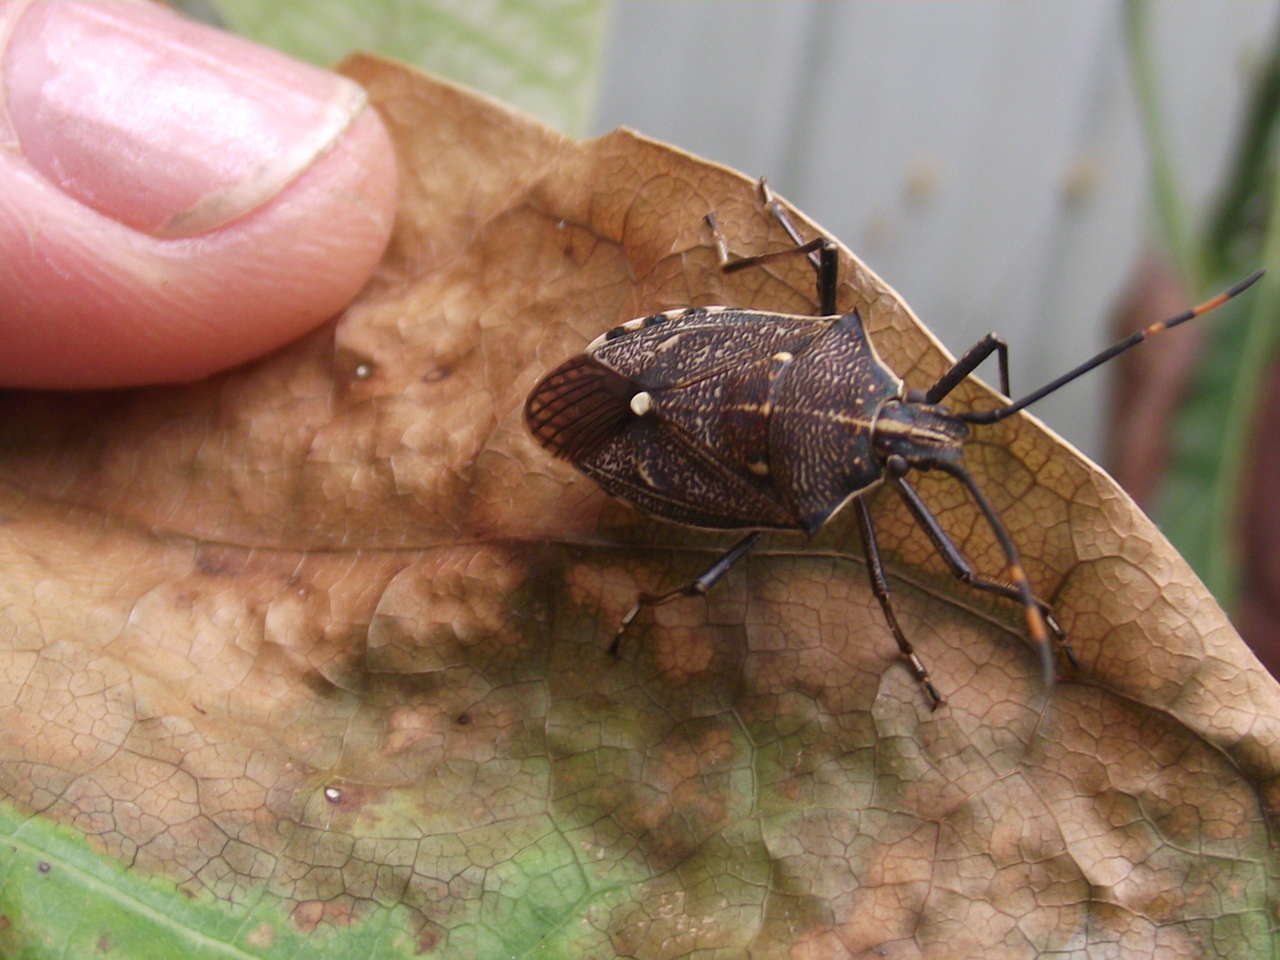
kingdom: Animalia
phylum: Arthropoda
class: Insecta
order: Hemiptera
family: Pentatomidae
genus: Omyta
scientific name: Omyta centrolineata
